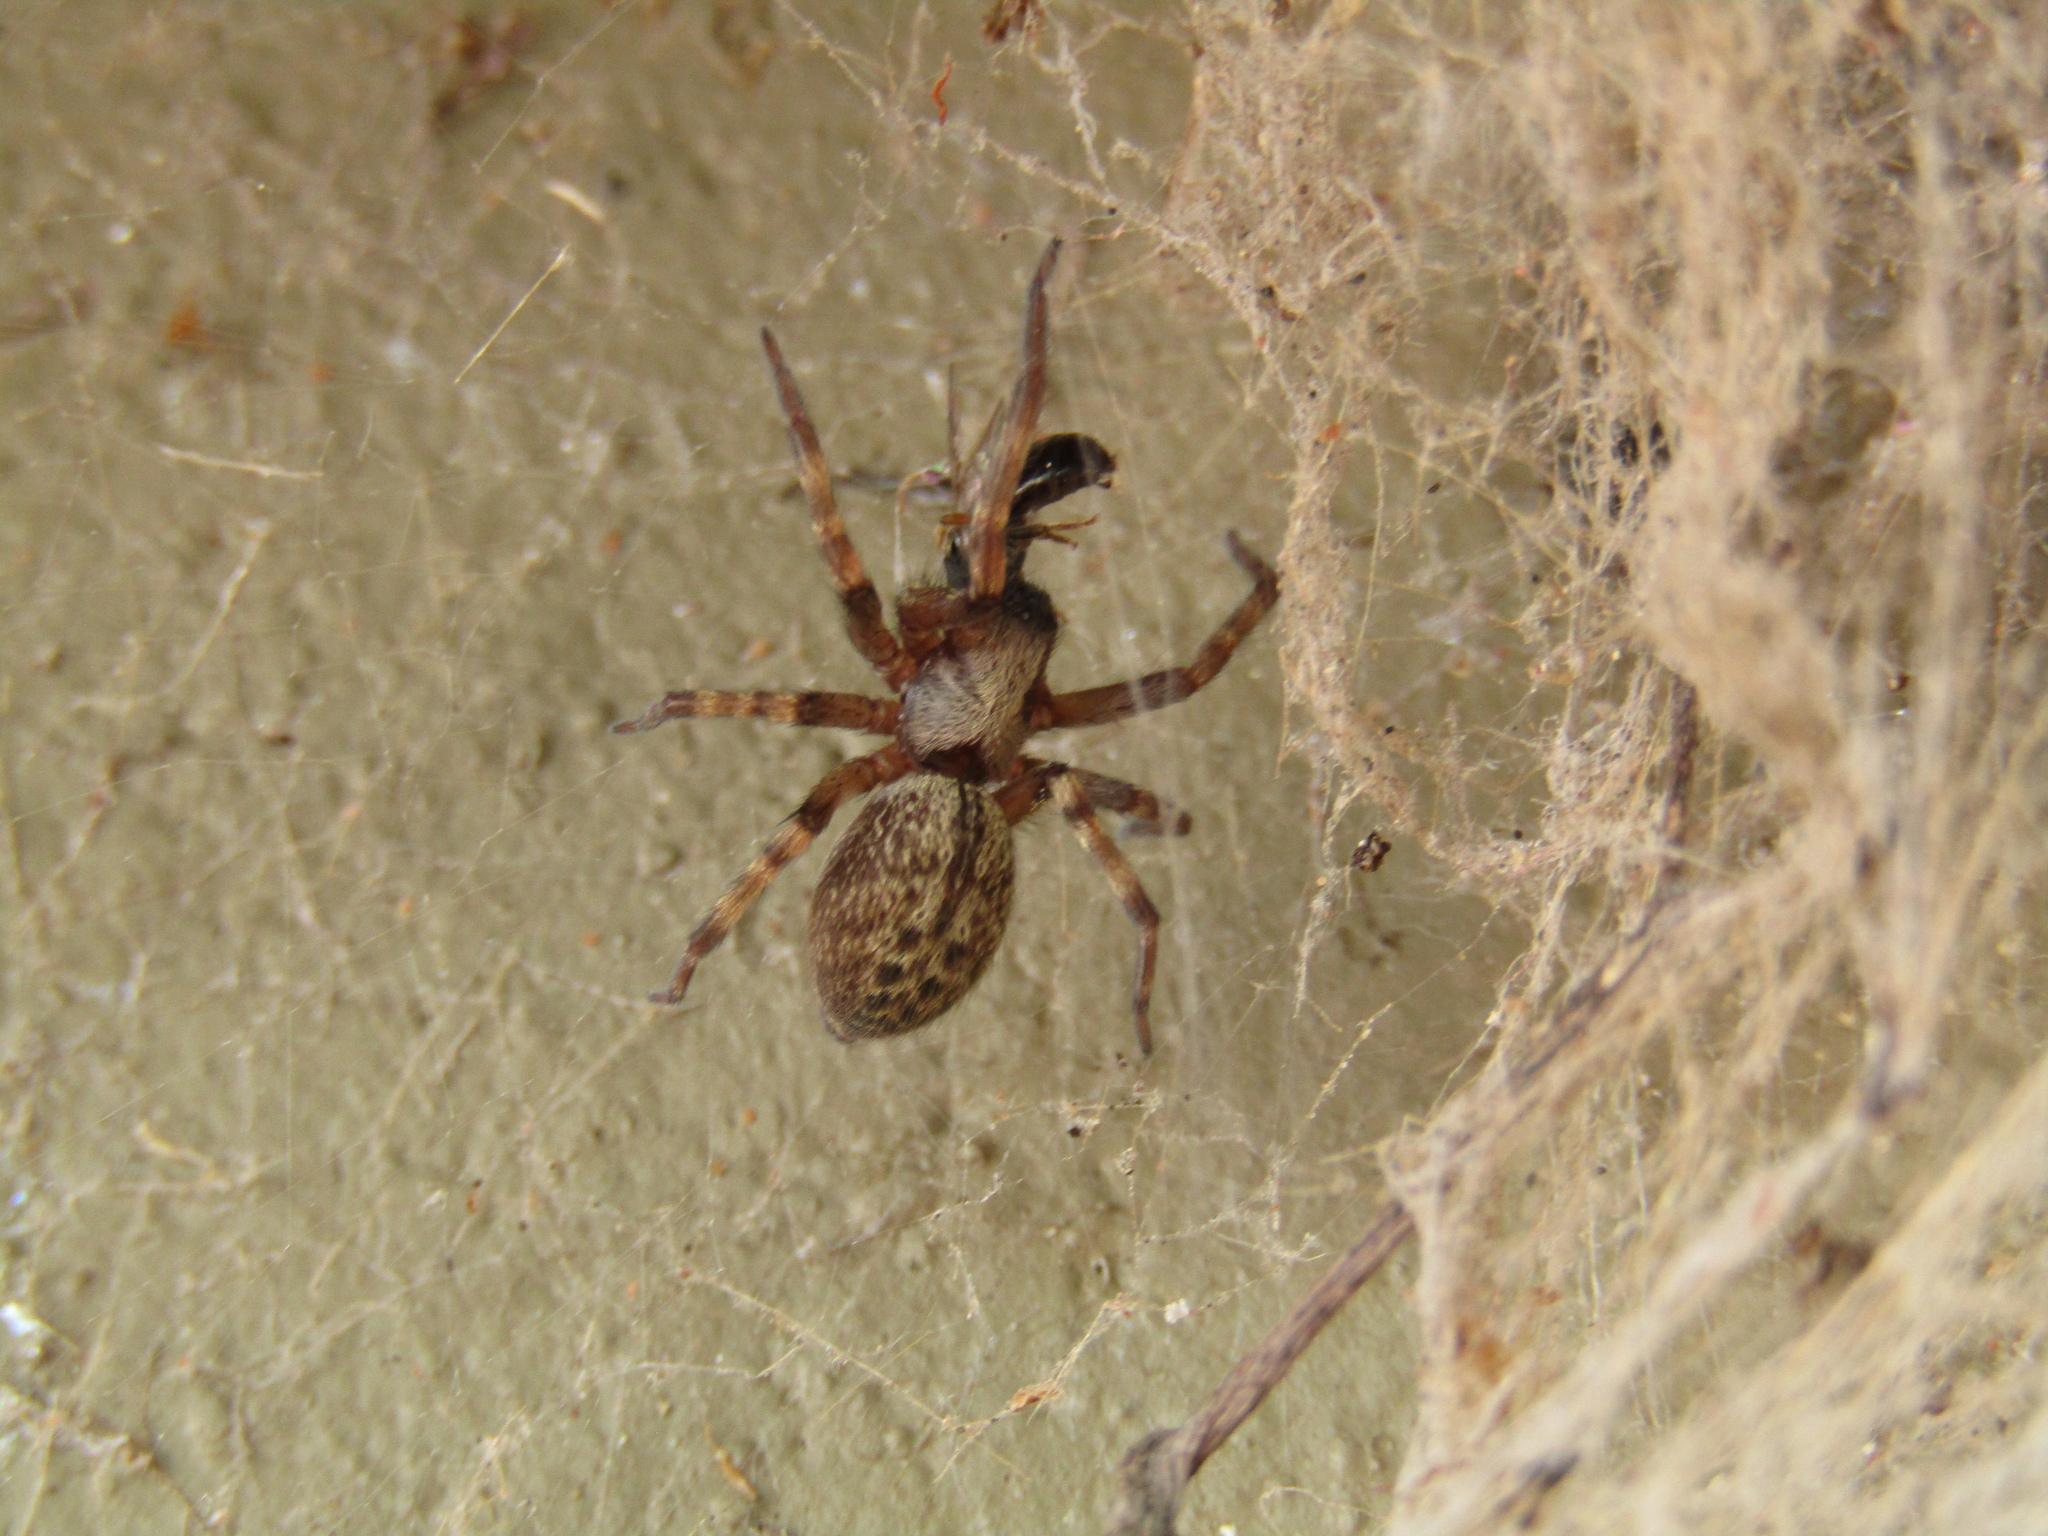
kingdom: Animalia
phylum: Arthropoda
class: Arachnida
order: Araneae
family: Desidae
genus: Badumna
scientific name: Badumna longinqua
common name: Gray house spider
